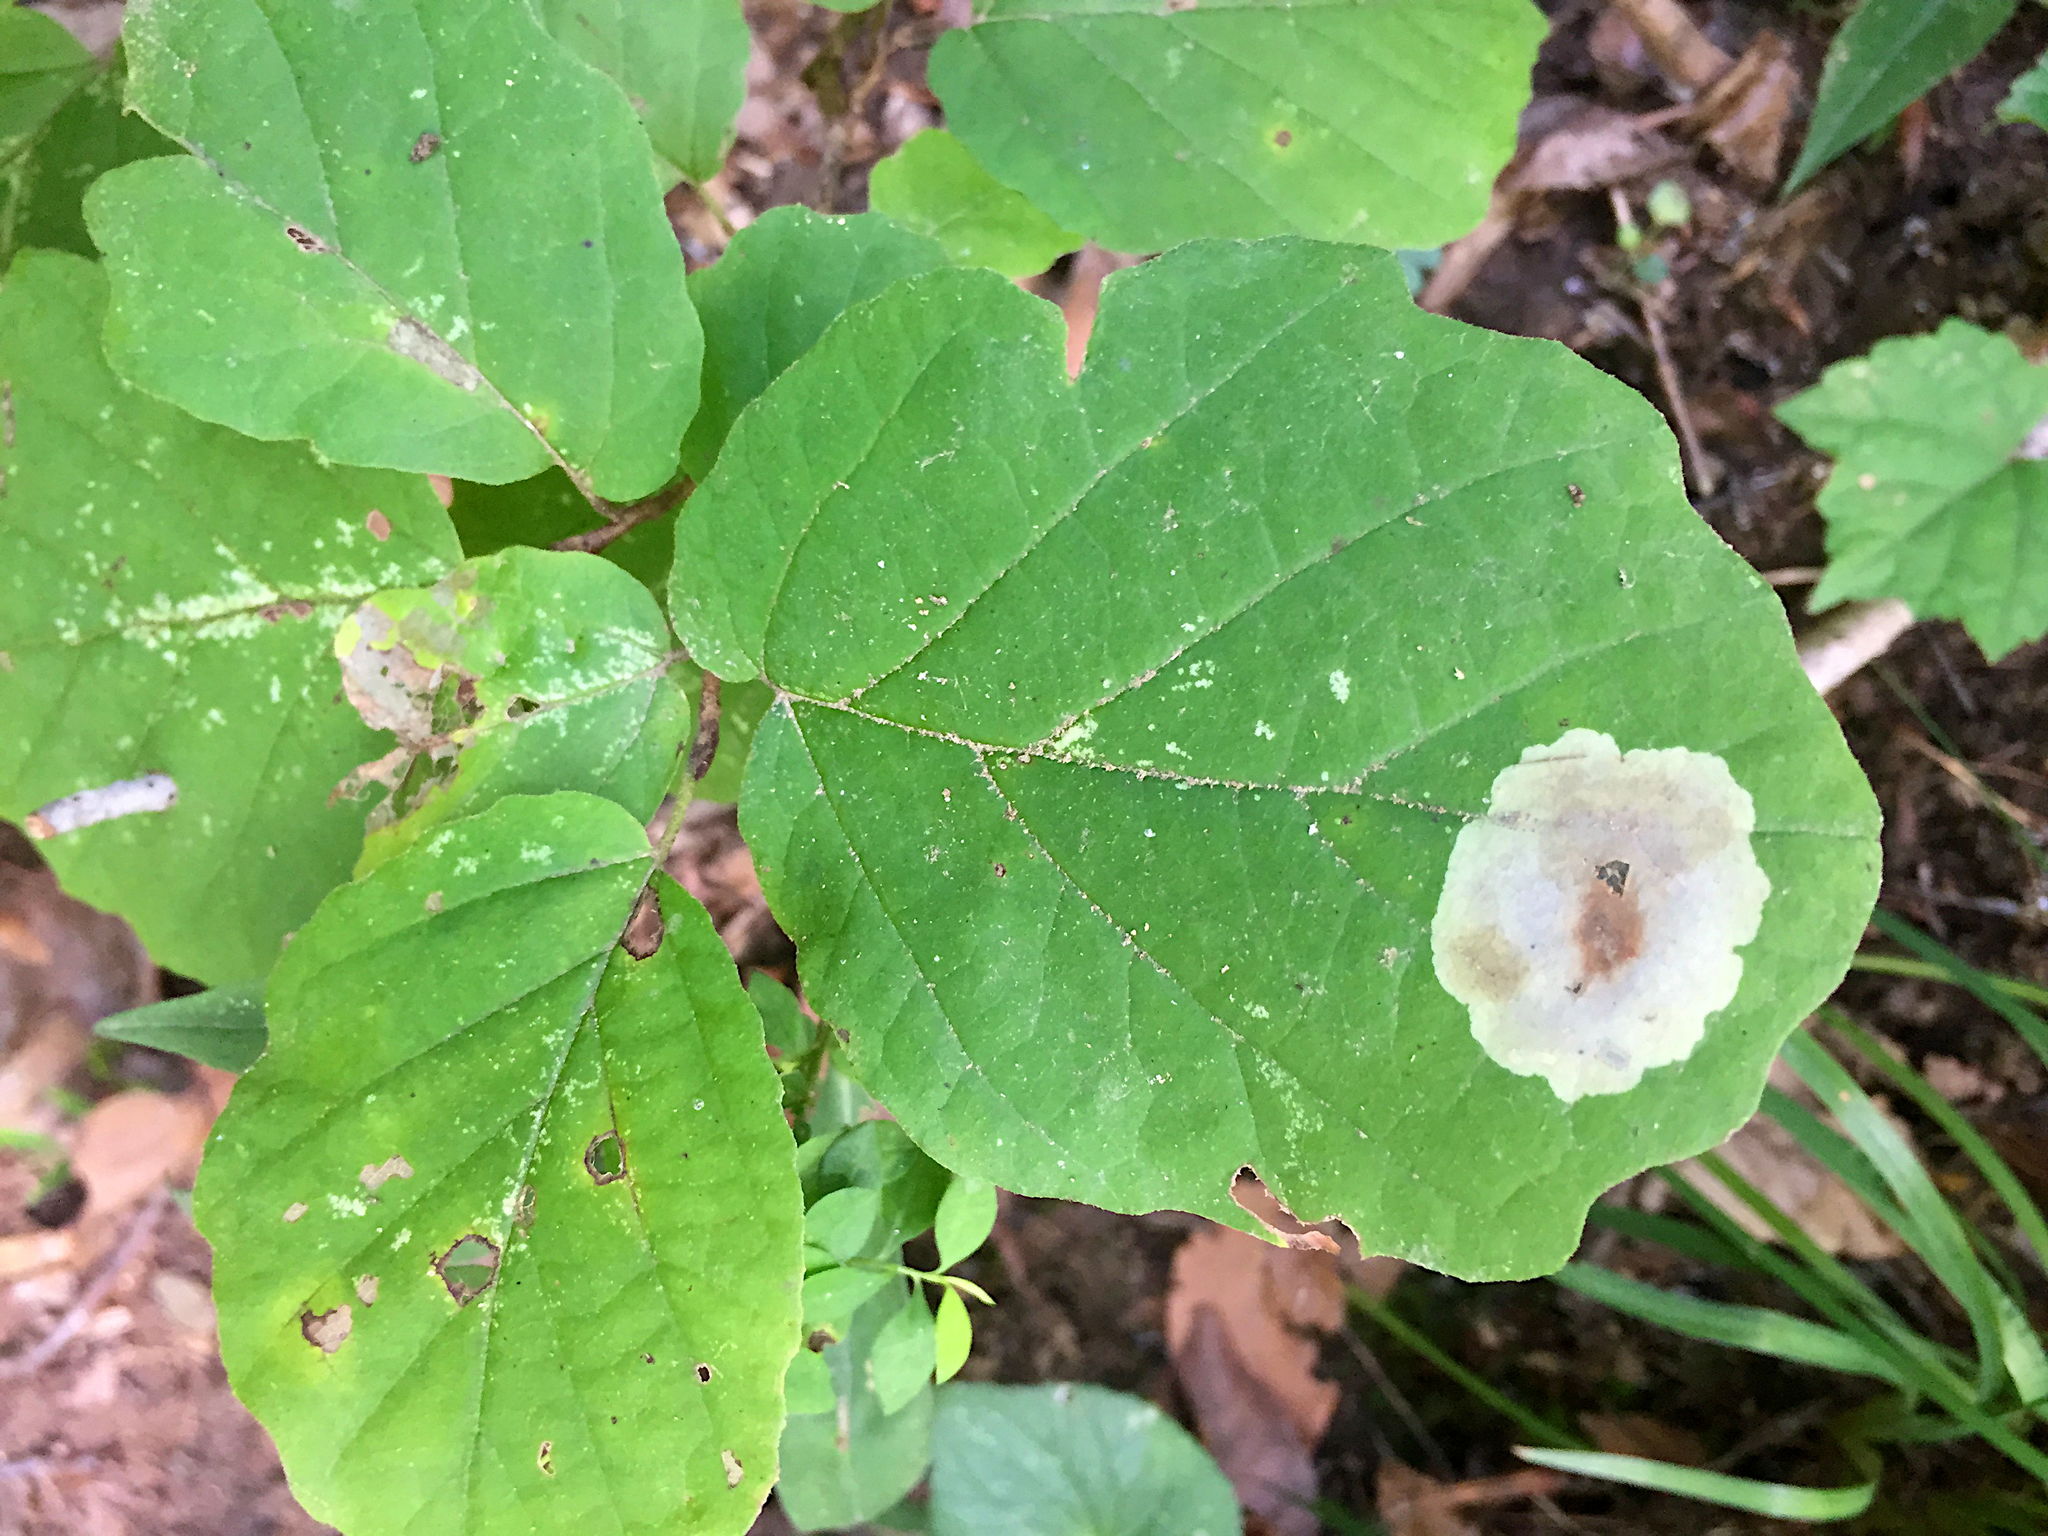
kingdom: Animalia
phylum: Arthropoda
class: Insecta
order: Lepidoptera
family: Gracillariidae
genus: Cameraria
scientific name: Cameraria hamameliella
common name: Witchhazel leafminer
